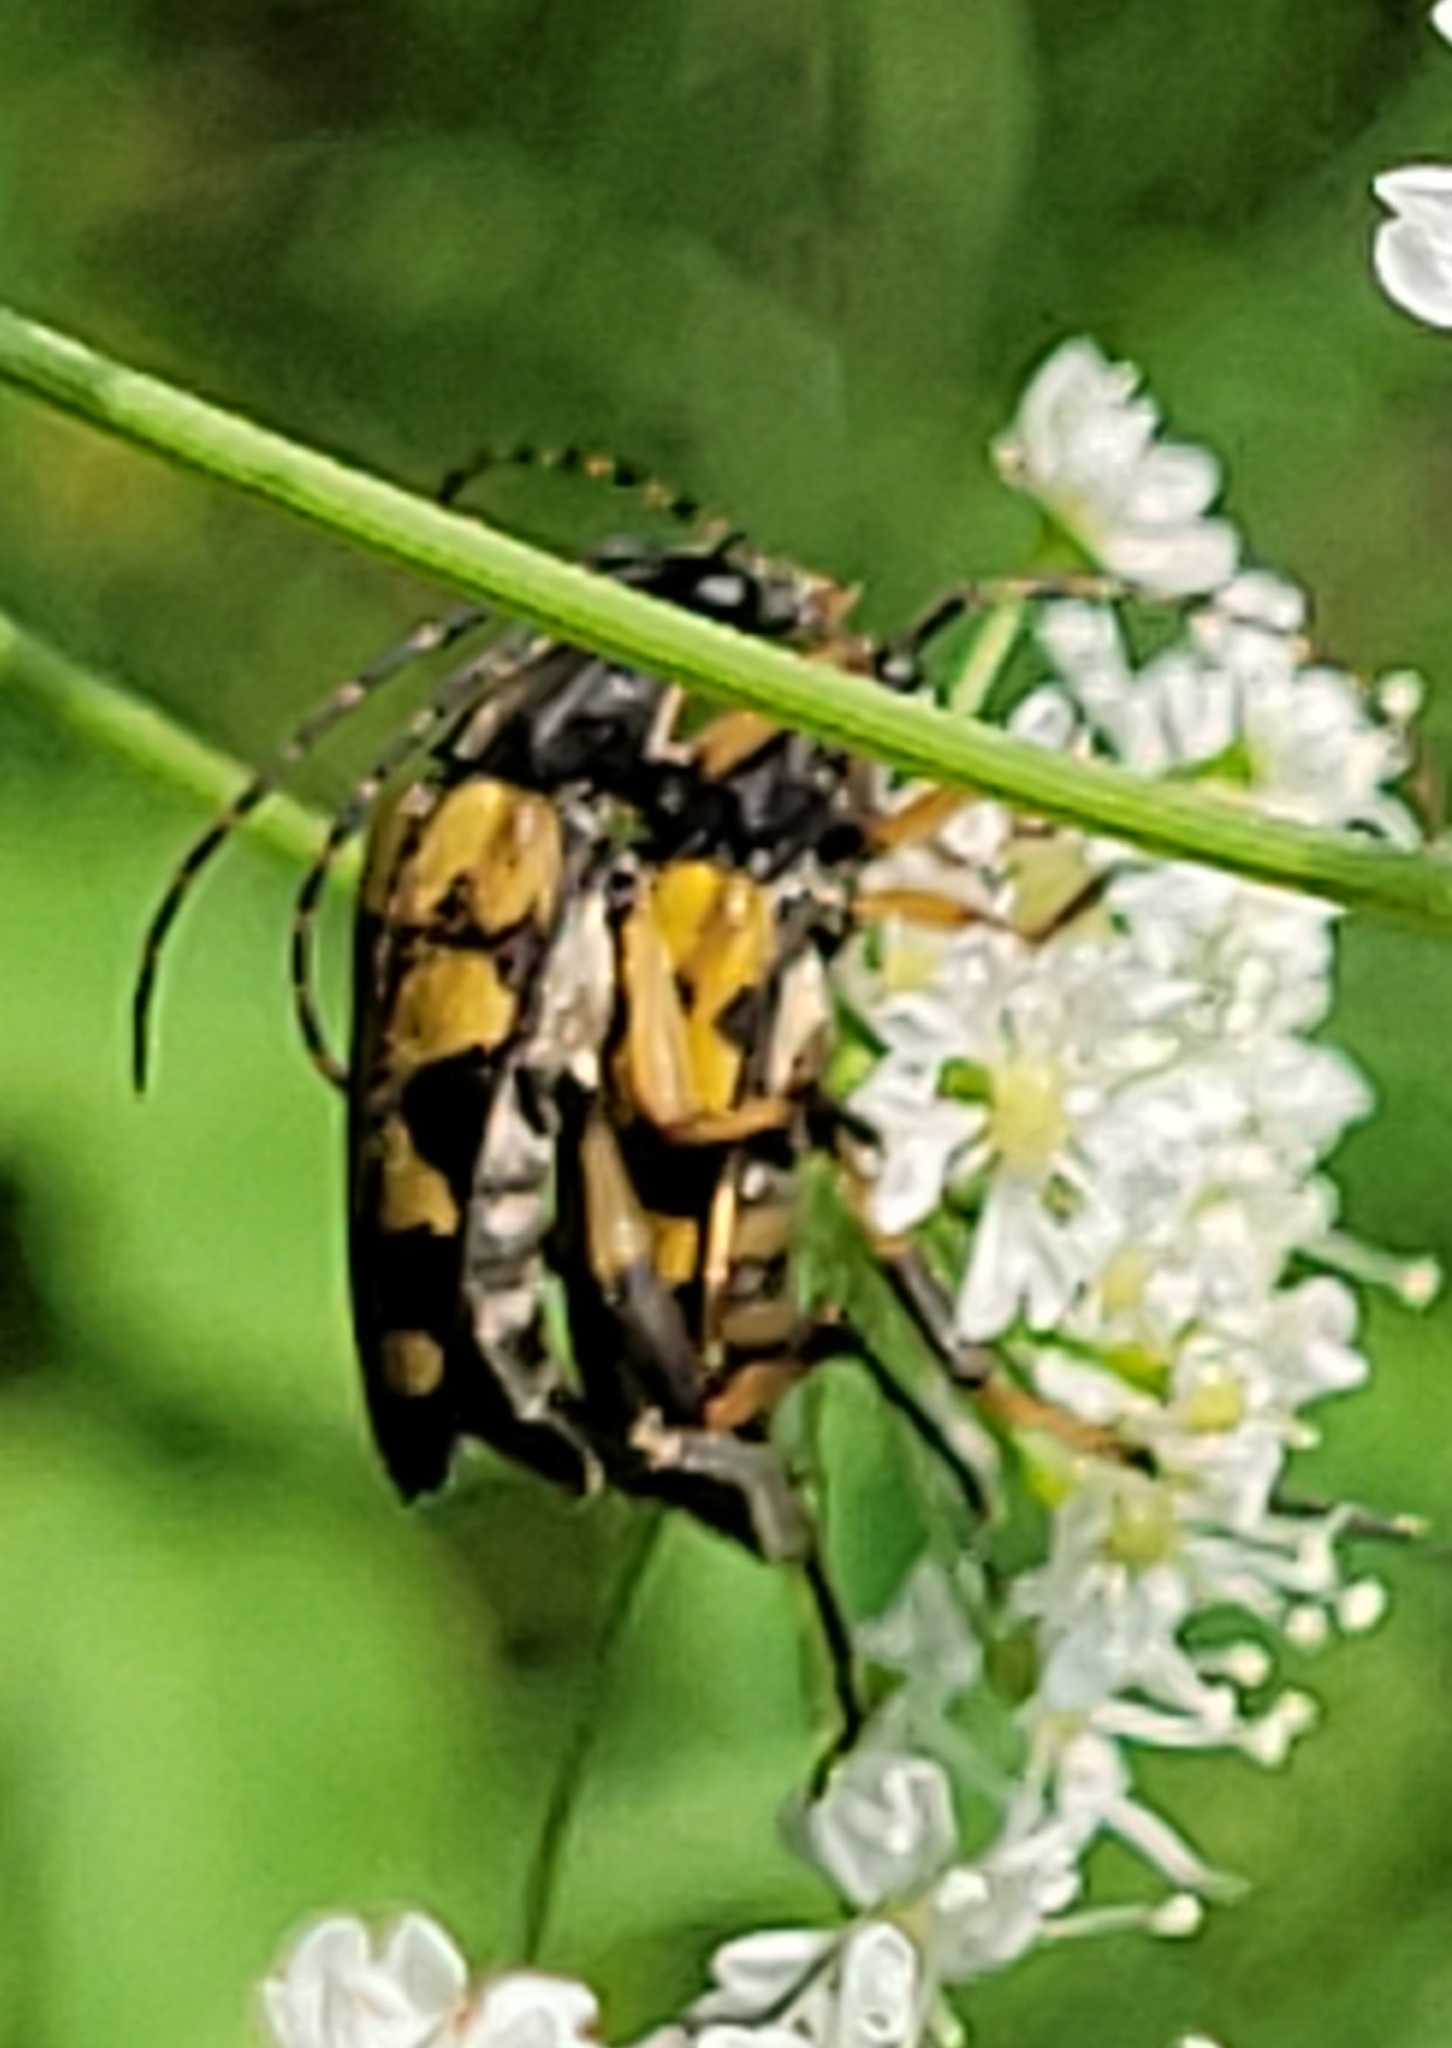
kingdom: Animalia
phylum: Arthropoda
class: Insecta
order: Coleoptera
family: Cerambycidae
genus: Rutpela
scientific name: Rutpela maculata
